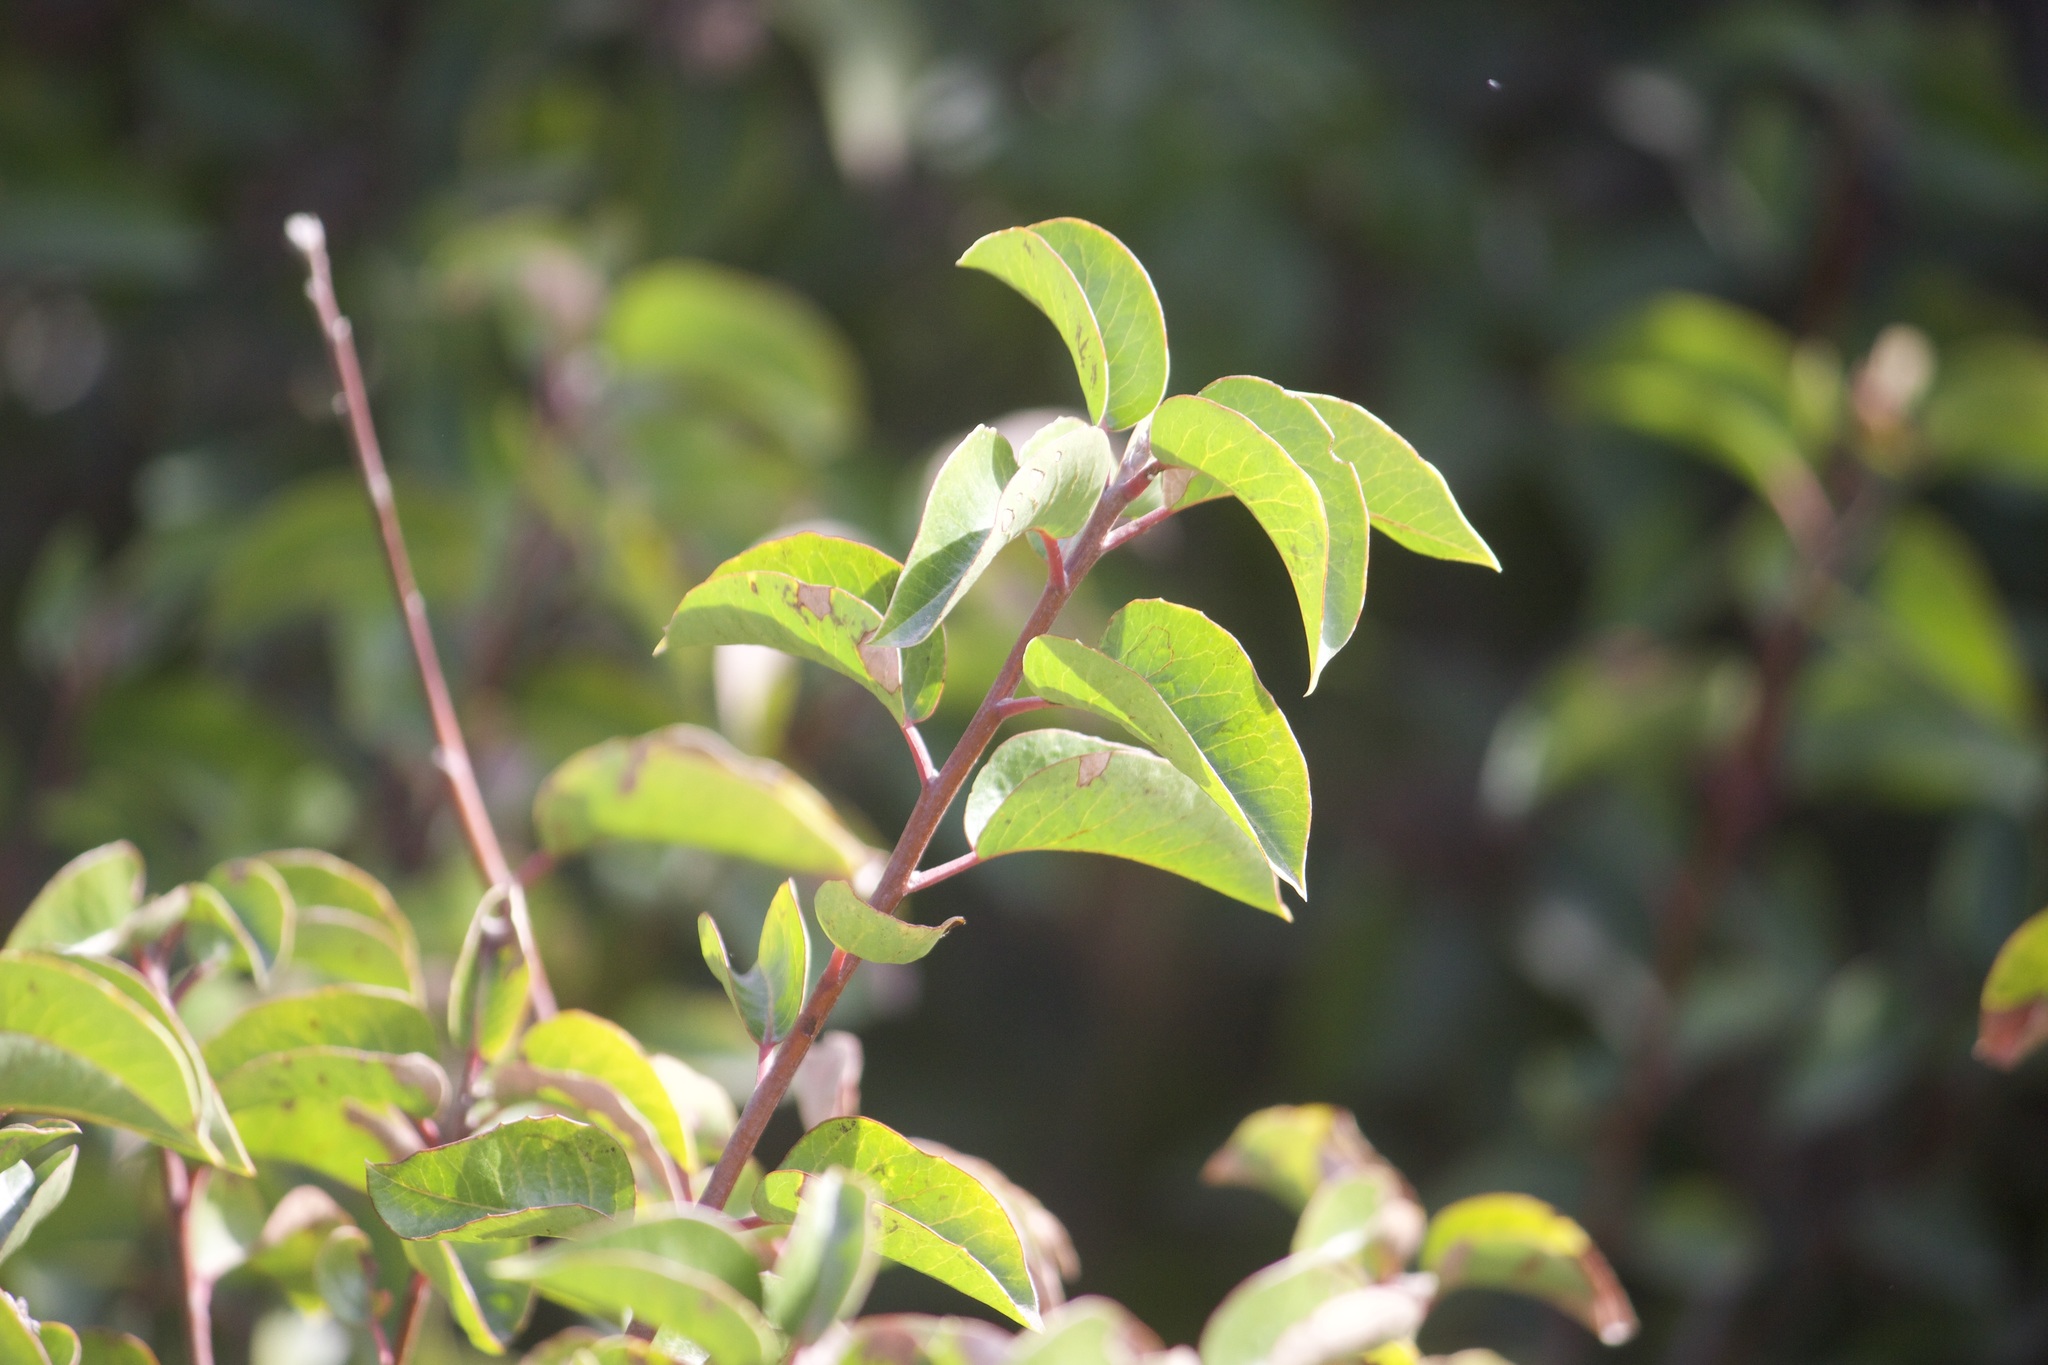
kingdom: Plantae
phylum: Tracheophyta
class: Magnoliopsida
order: Sapindales
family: Anacardiaceae
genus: Rhus
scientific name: Rhus ovata
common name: Sugar sumac
